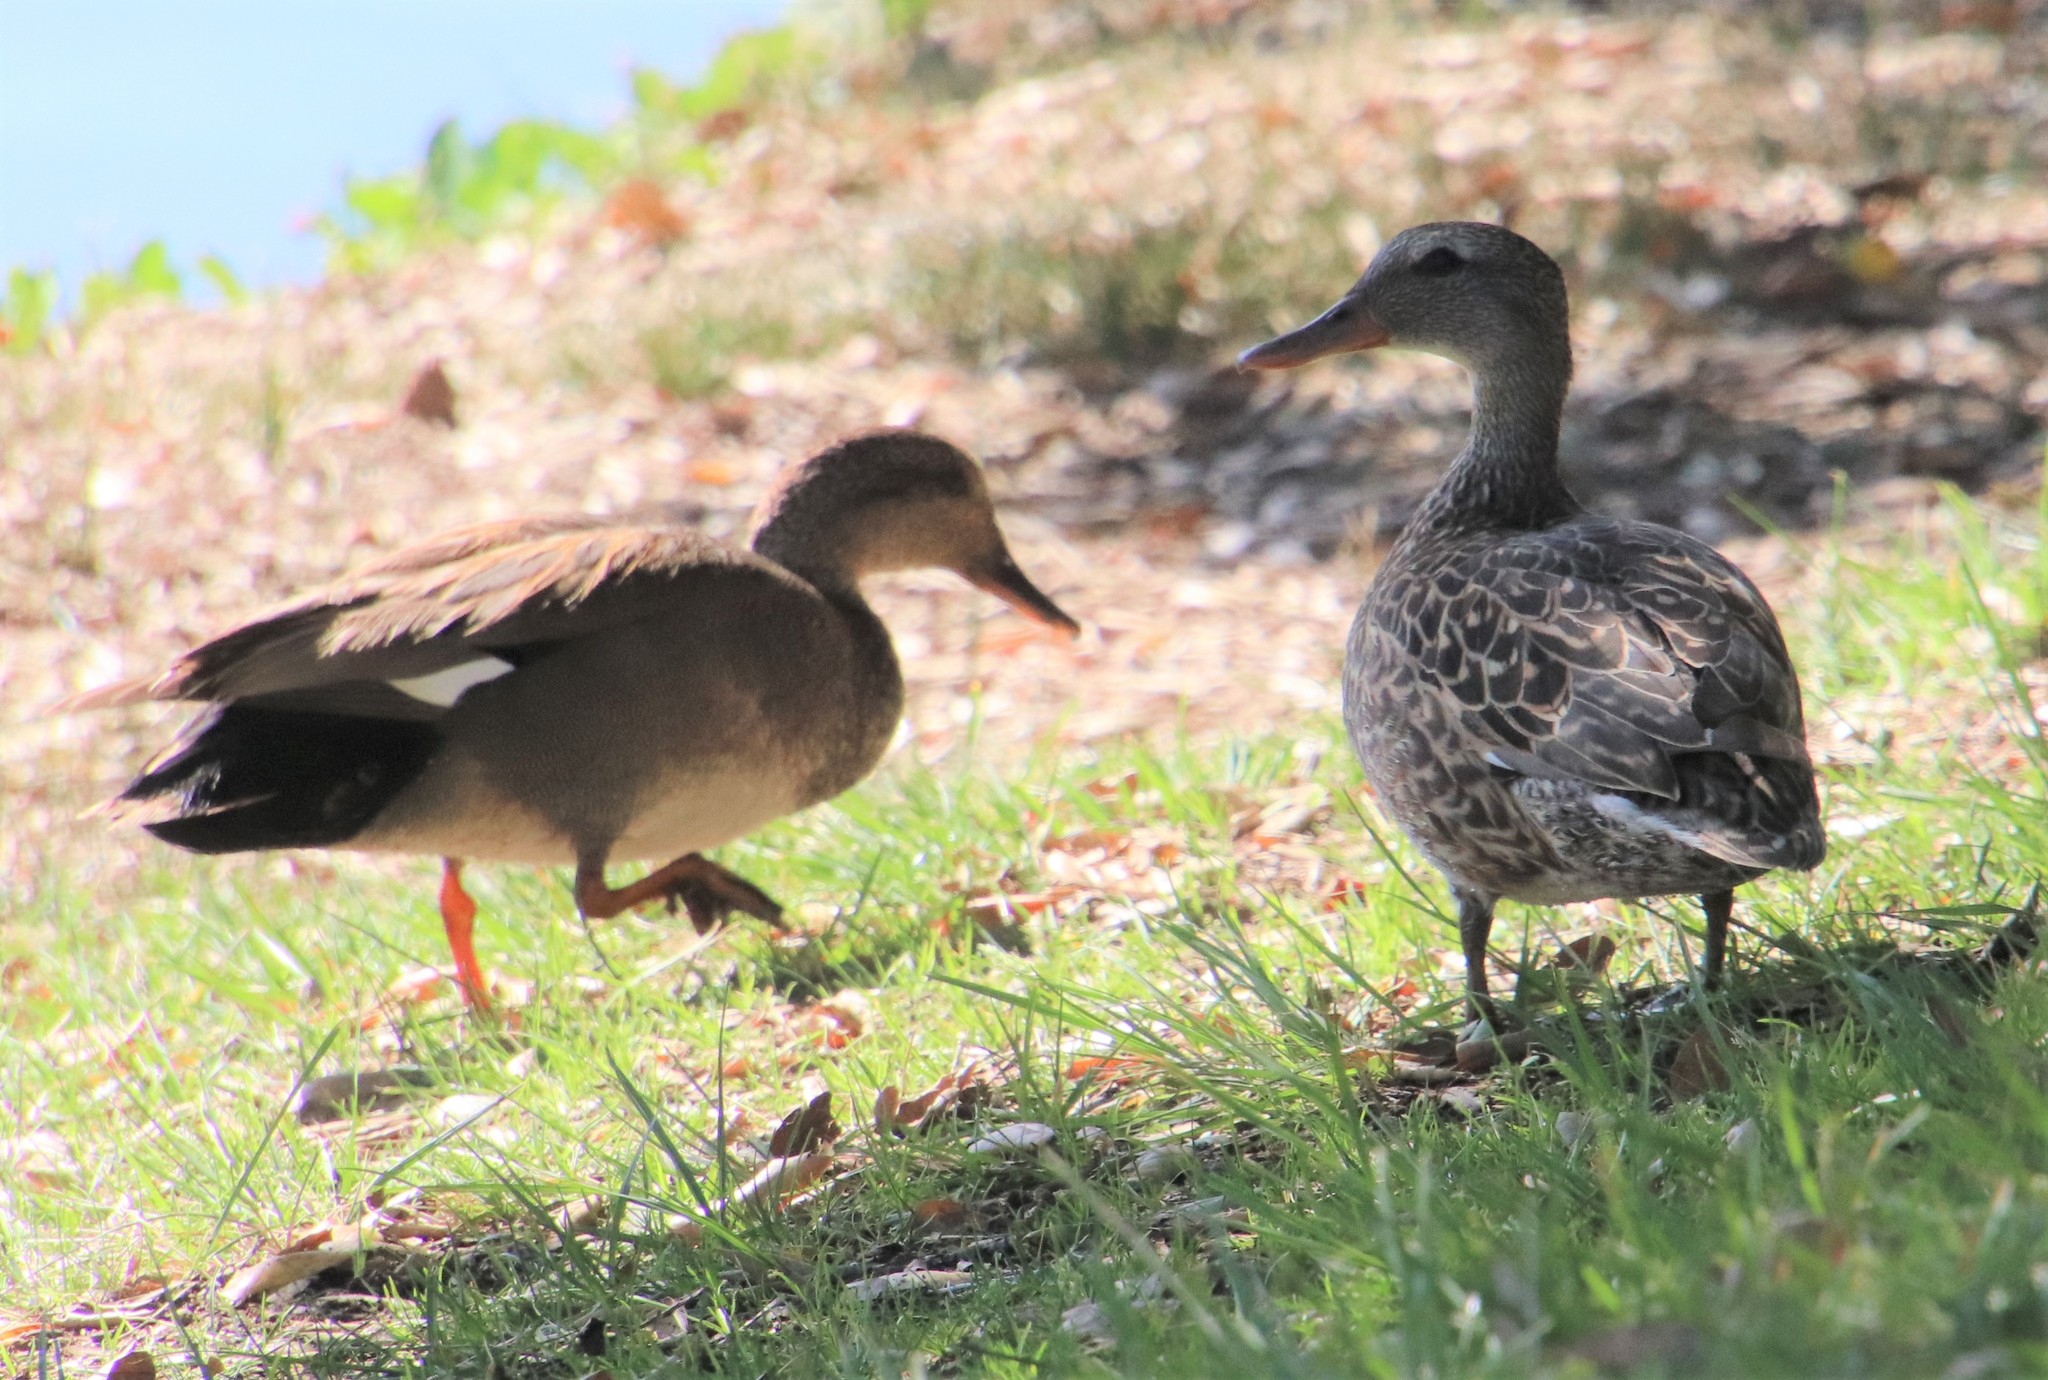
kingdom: Animalia
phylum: Chordata
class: Aves
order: Anseriformes
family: Anatidae
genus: Mareca
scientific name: Mareca strepera
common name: Gadwall
